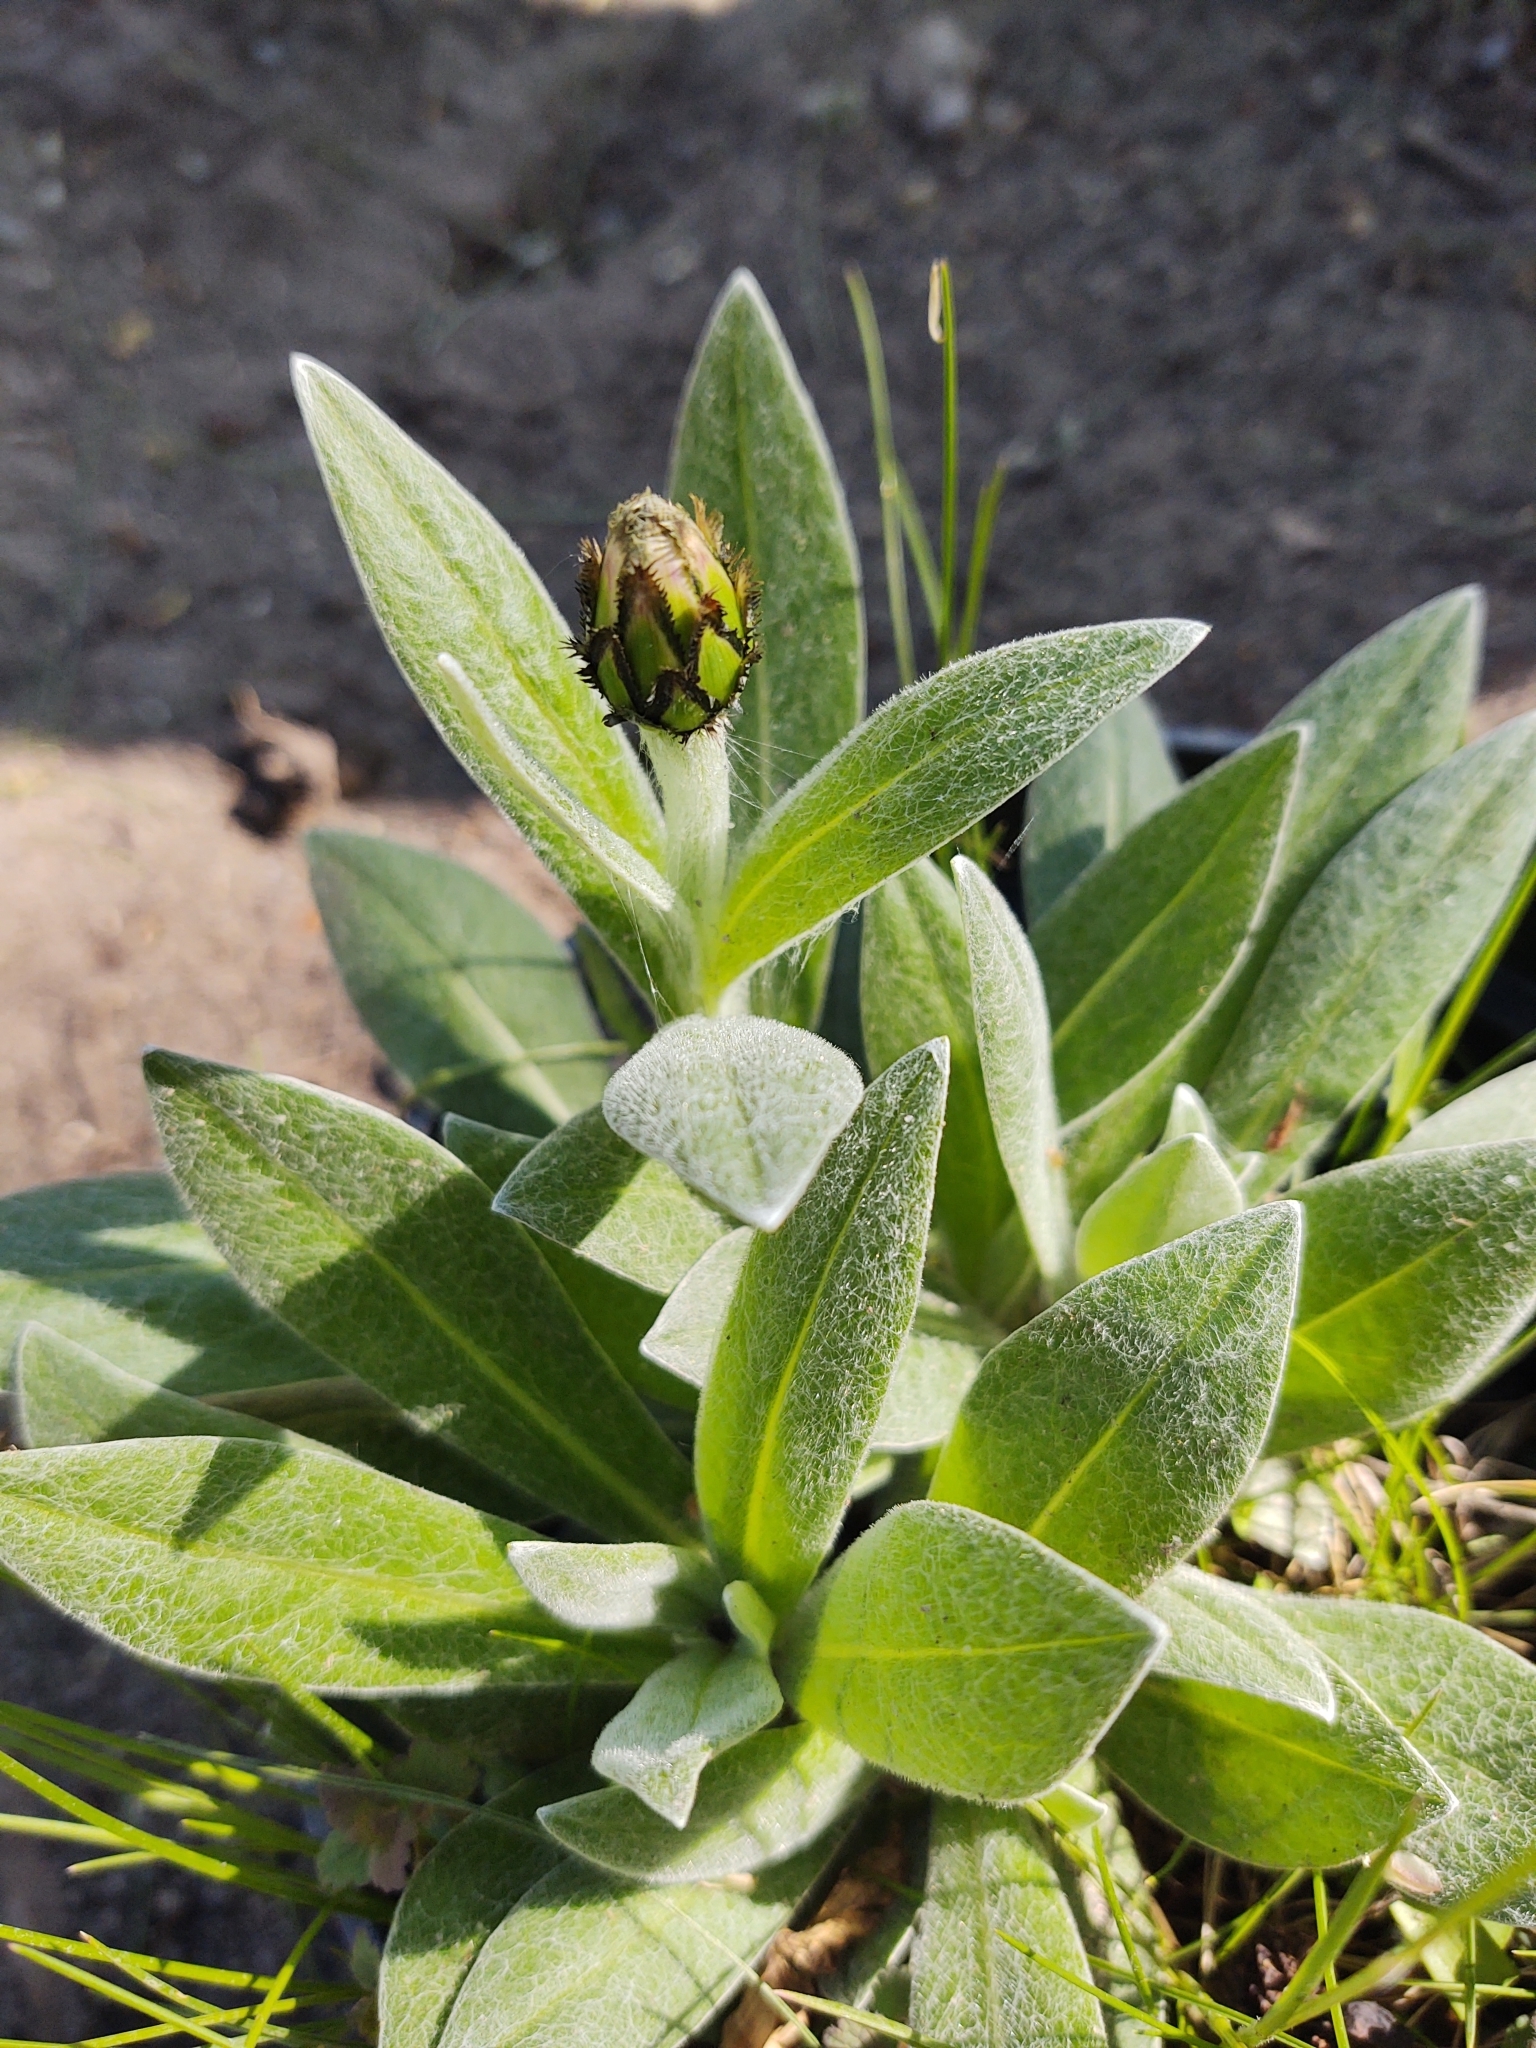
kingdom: Plantae
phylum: Tracheophyta
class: Magnoliopsida
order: Asterales
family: Asteraceae
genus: Centaurea
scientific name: Centaurea montana
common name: Perennial cornflower
